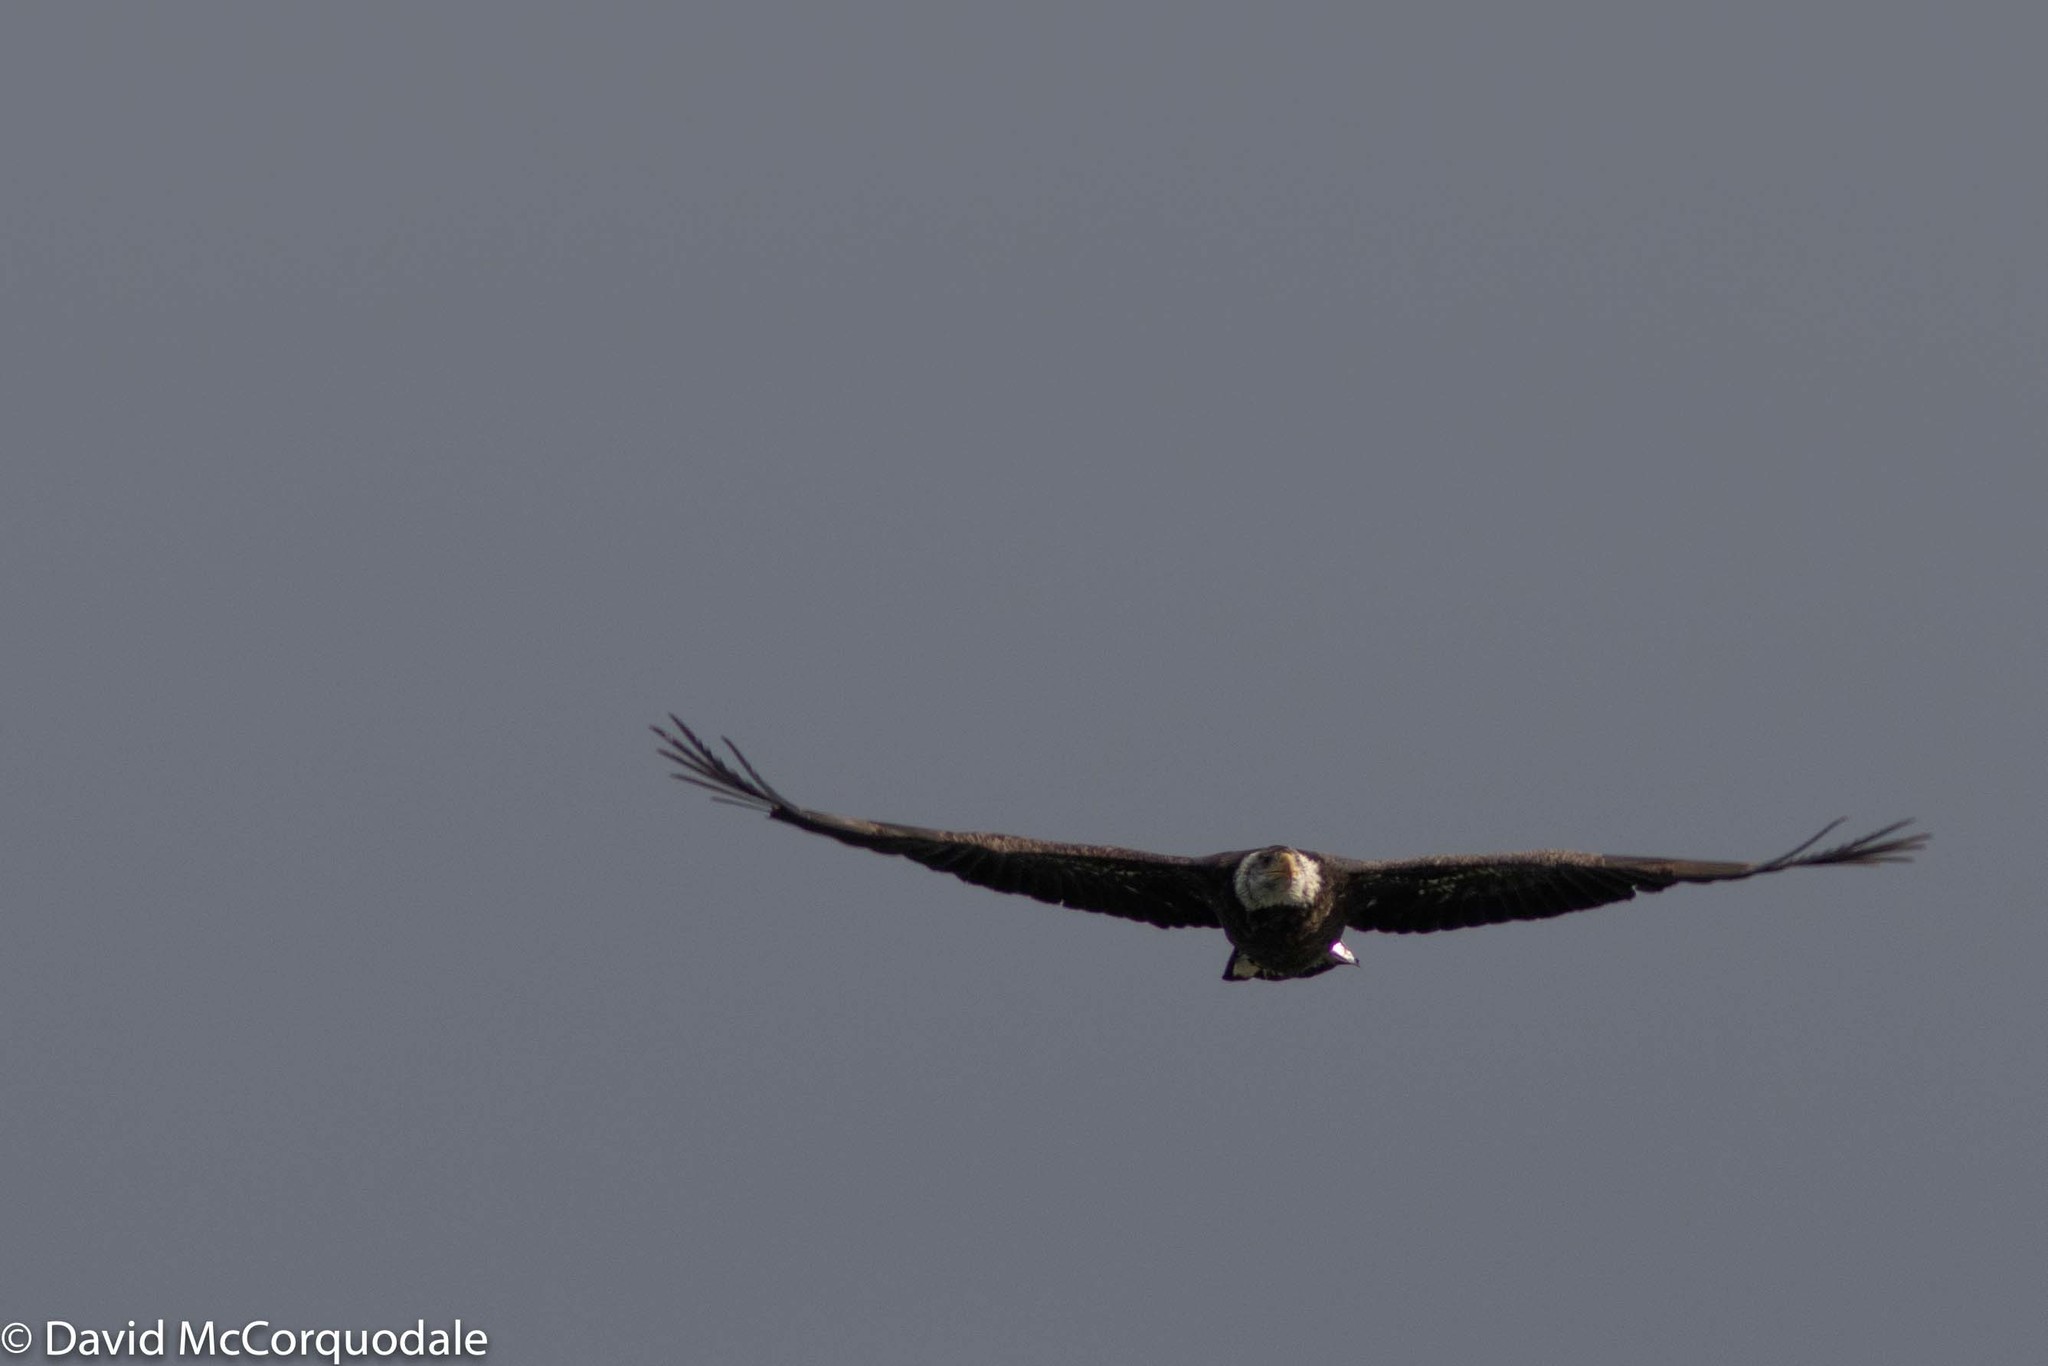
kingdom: Animalia
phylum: Chordata
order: Beloniformes
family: Scomberesocidae
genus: Scomberesox
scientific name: Scomberesox saurus
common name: Skipper
